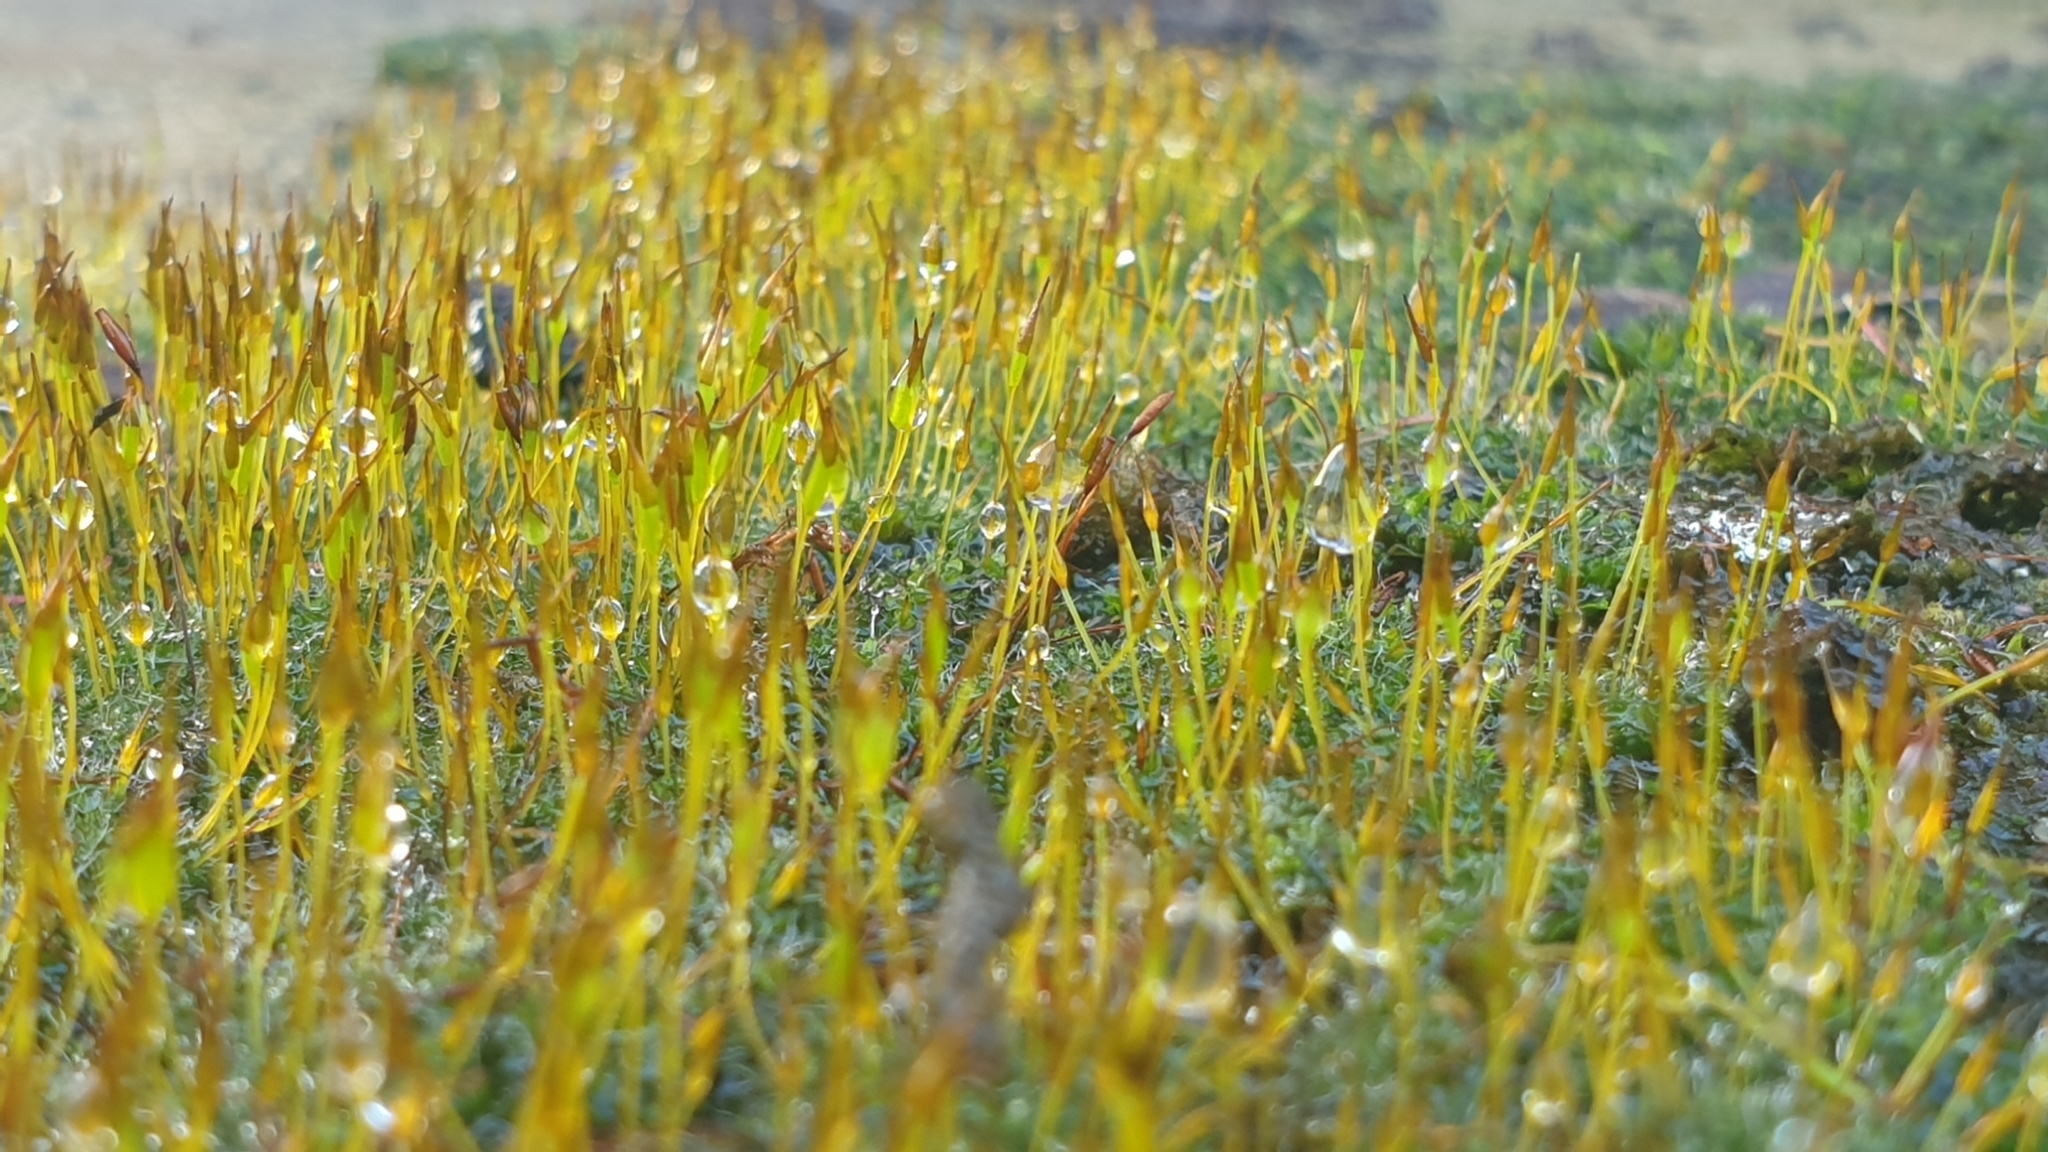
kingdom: Plantae
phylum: Bryophyta
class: Bryopsida
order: Pottiales
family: Pottiaceae
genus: Tortula
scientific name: Tortula muralis
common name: Wall screw-moss
